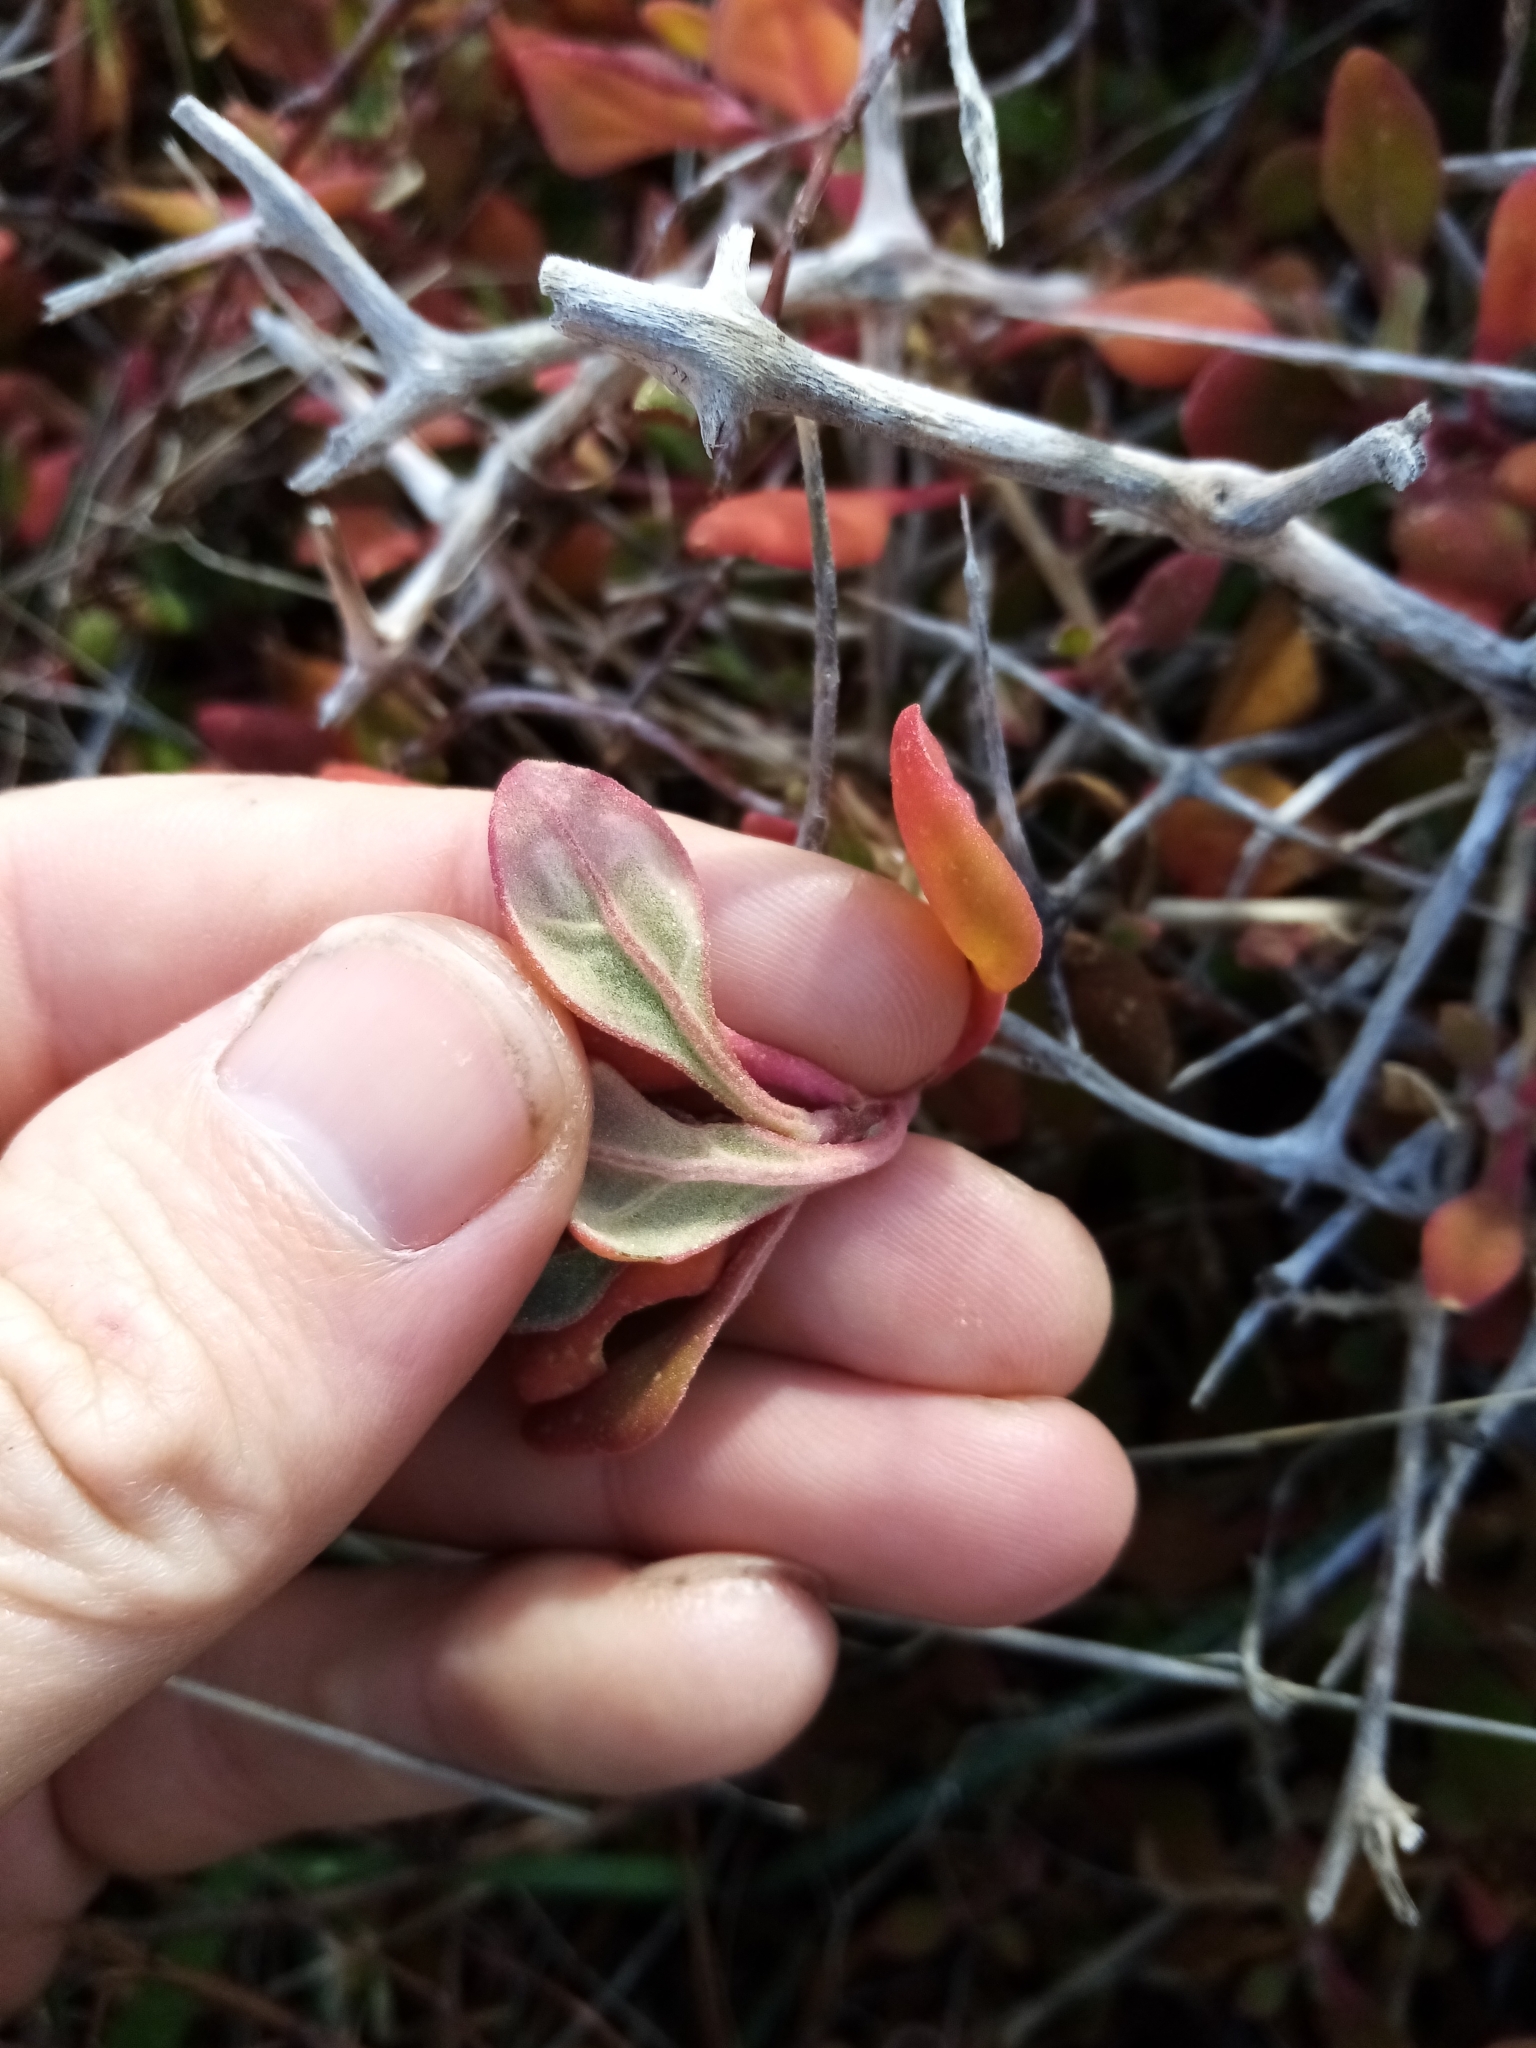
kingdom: Plantae
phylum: Tracheophyta
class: Magnoliopsida
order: Caryophyllales
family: Aizoaceae
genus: Tetragonia
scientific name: Tetragonia implexicoma
